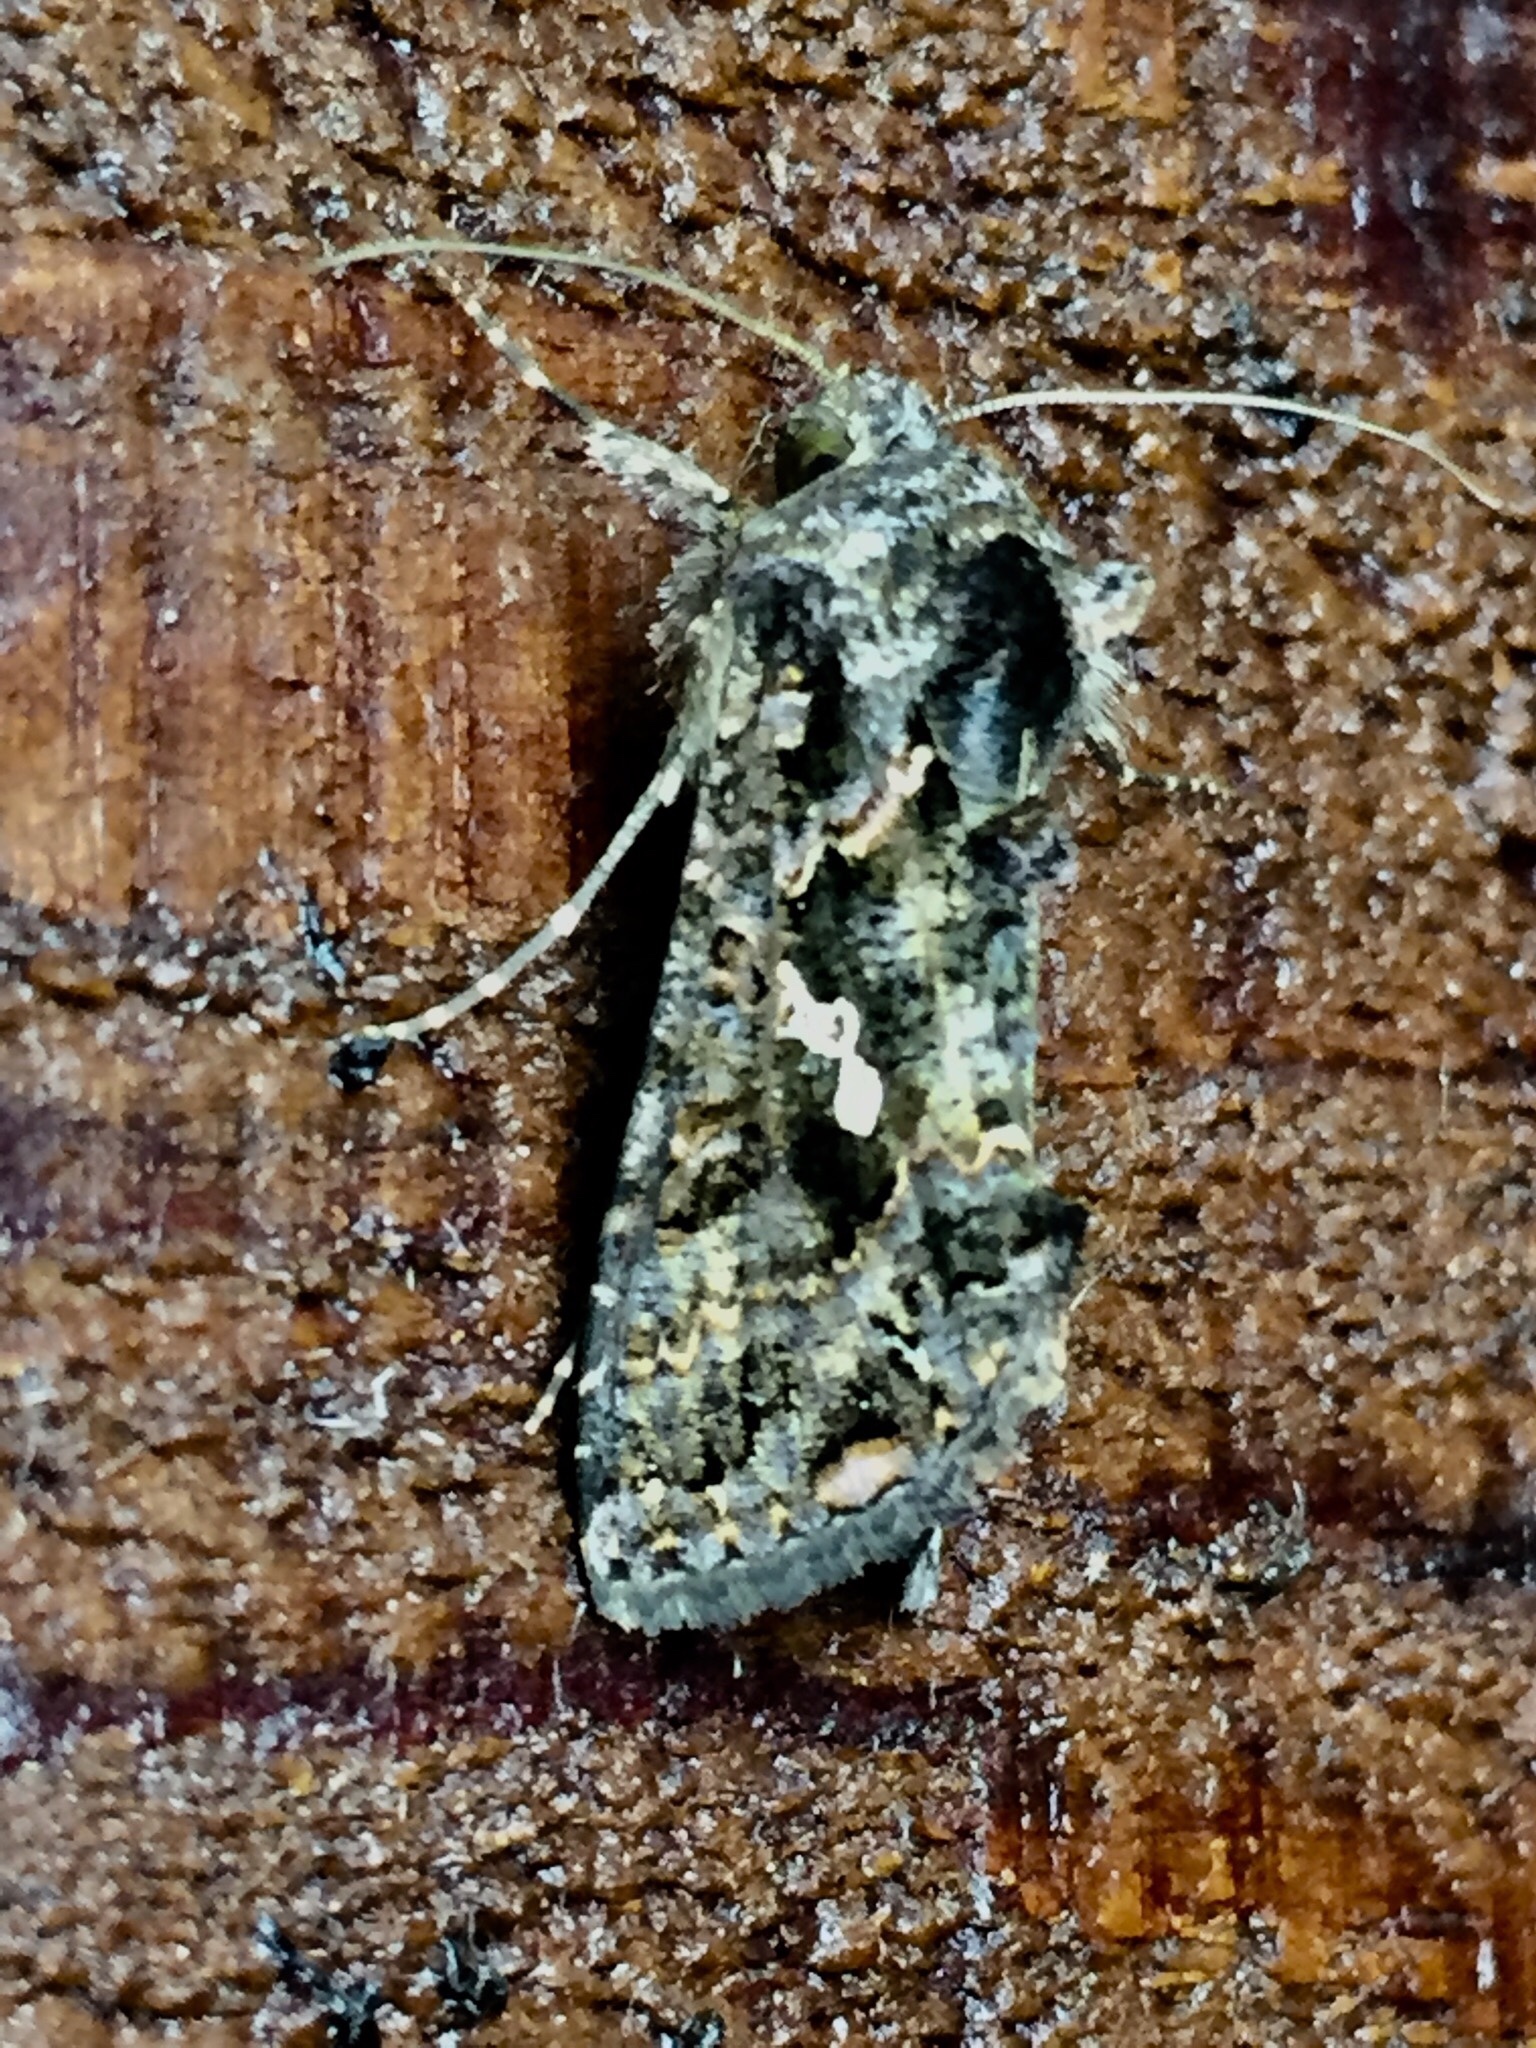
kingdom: Animalia
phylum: Arthropoda
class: Insecta
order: Lepidoptera
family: Noctuidae
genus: Ctenoplusia
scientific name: Ctenoplusia limbirena
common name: Scar bank gem
